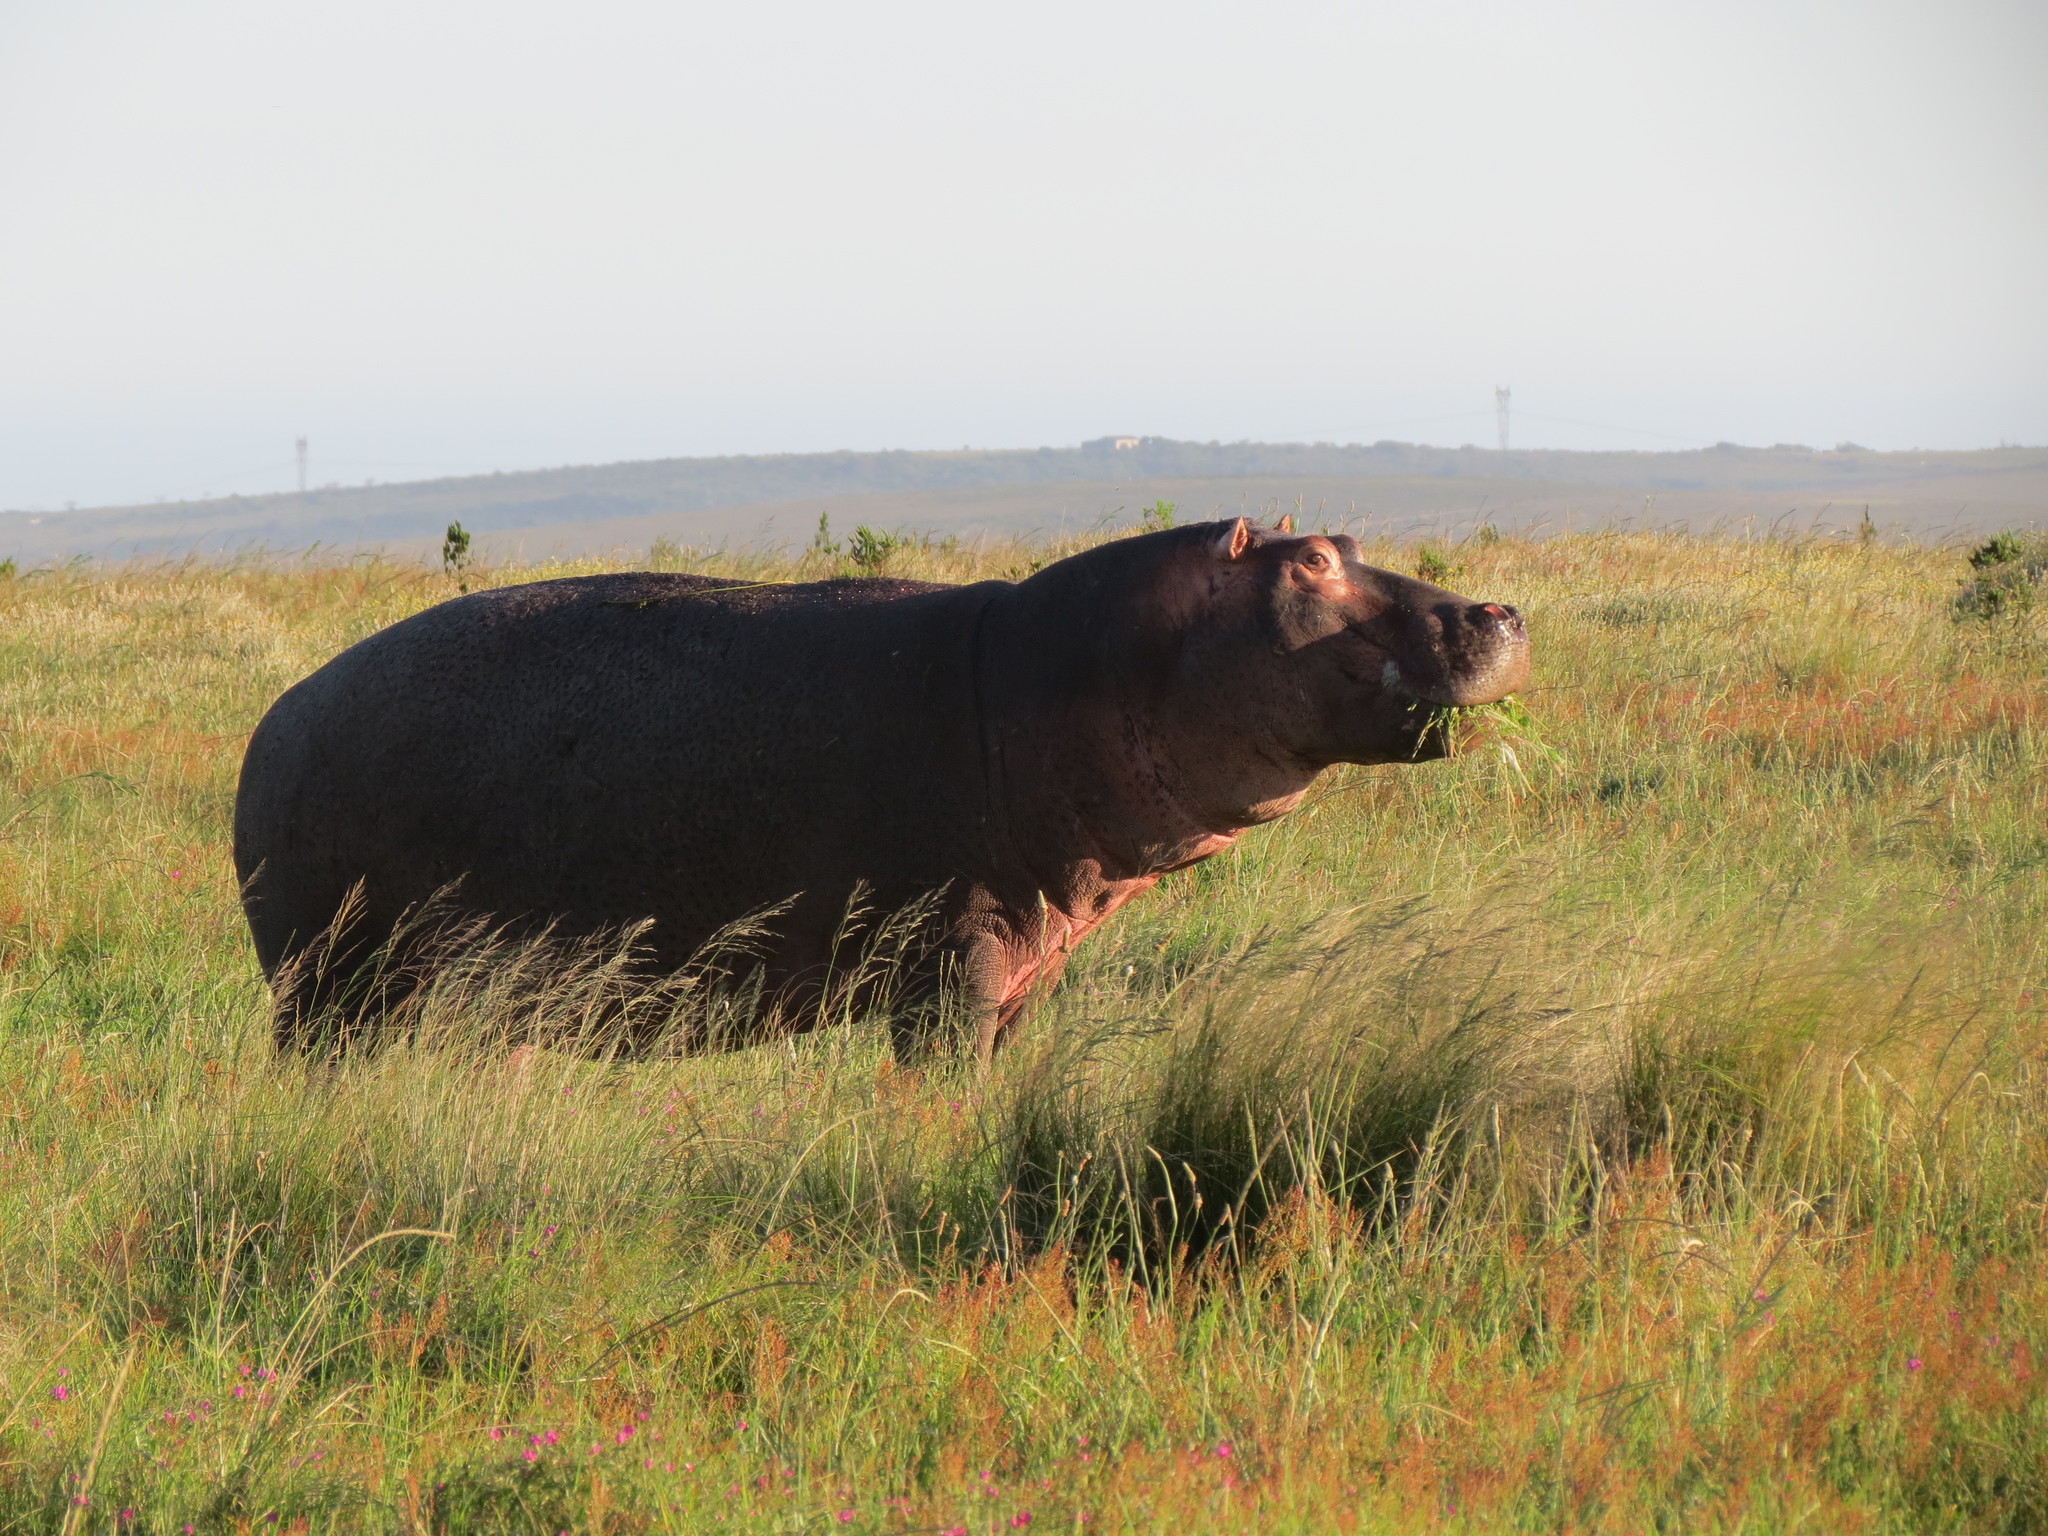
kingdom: Animalia
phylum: Chordata
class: Mammalia
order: Artiodactyla
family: Hippopotamidae
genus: Hippopotamus
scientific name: Hippopotamus amphibius
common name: Common hippopotamus
